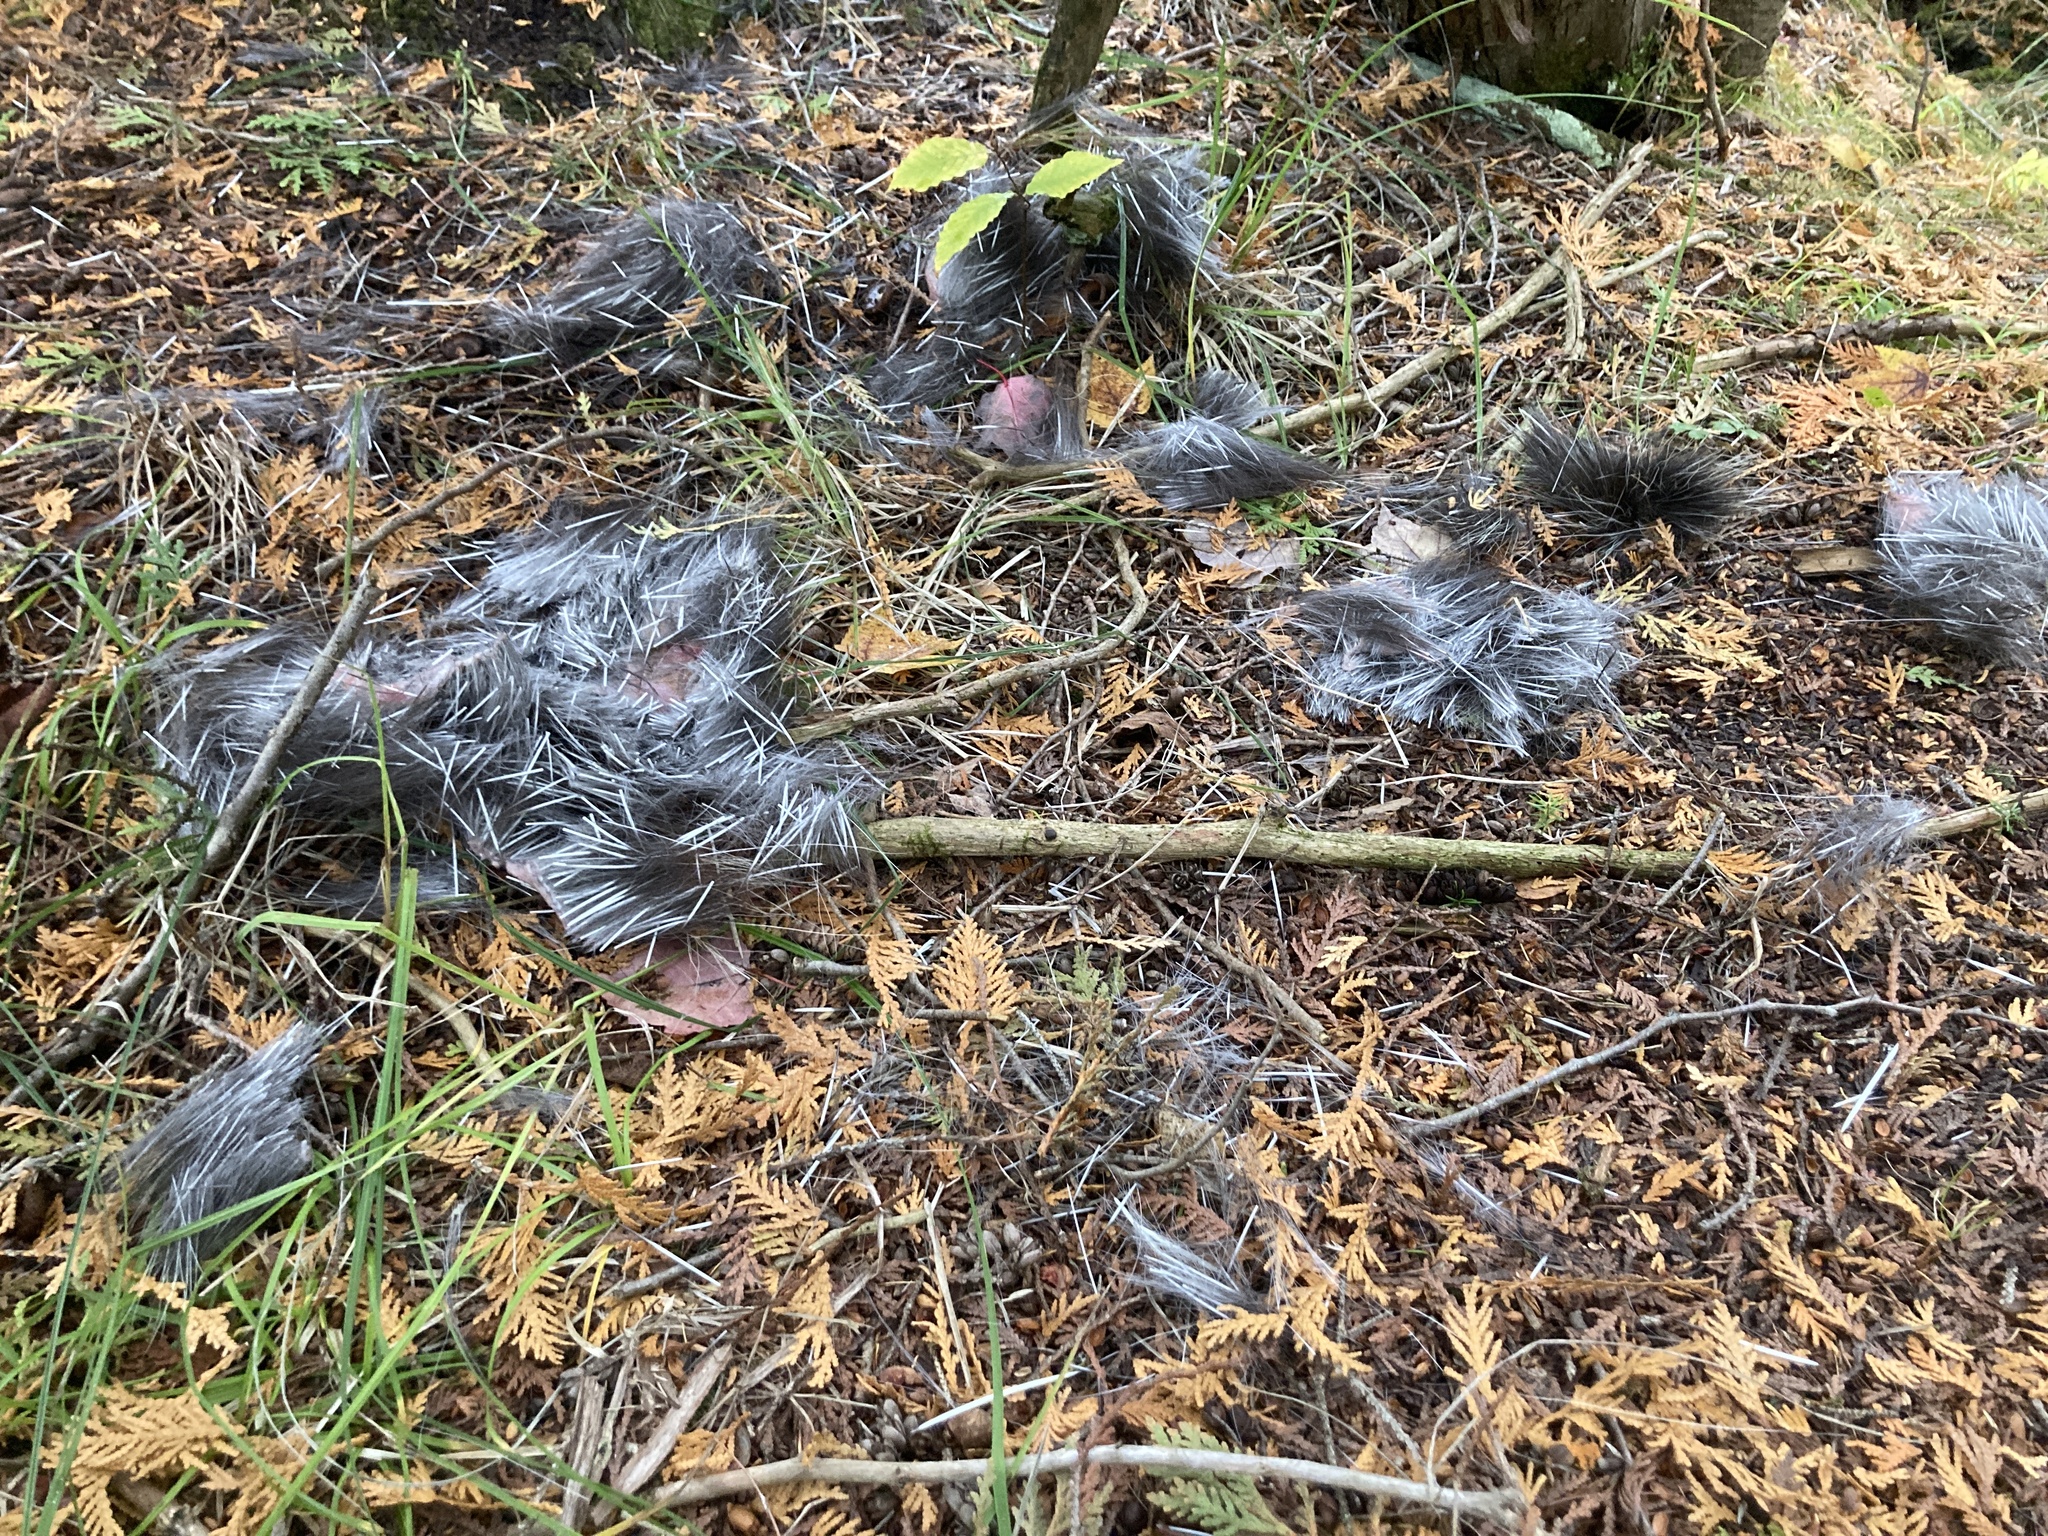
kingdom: Animalia
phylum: Chordata
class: Mammalia
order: Rodentia
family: Erethizontidae
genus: Erethizon
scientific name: Erethizon dorsatus
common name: North american porcupine
